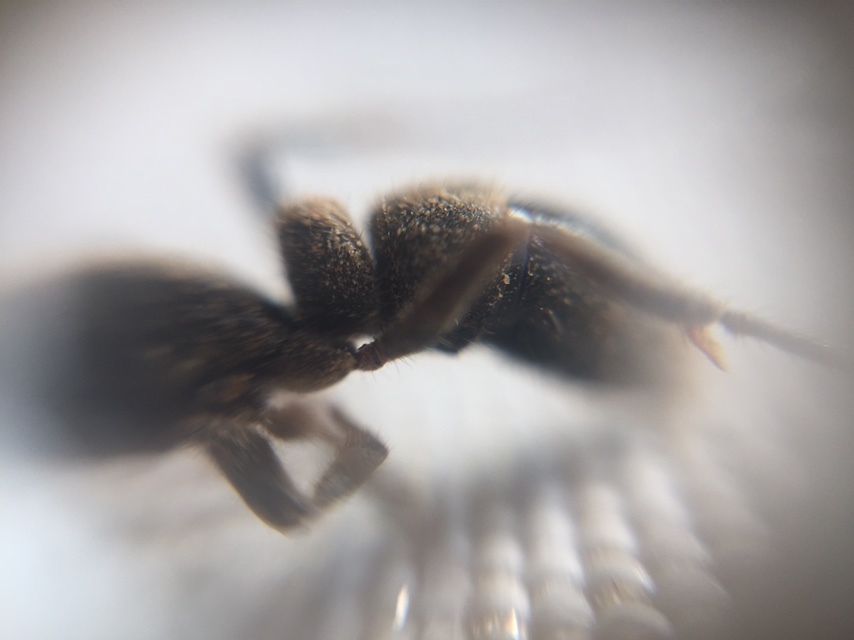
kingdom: Animalia
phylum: Arthropoda
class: Insecta
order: Hymenoptera
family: Formicidae
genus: Bothroponera
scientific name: Bothroponera
